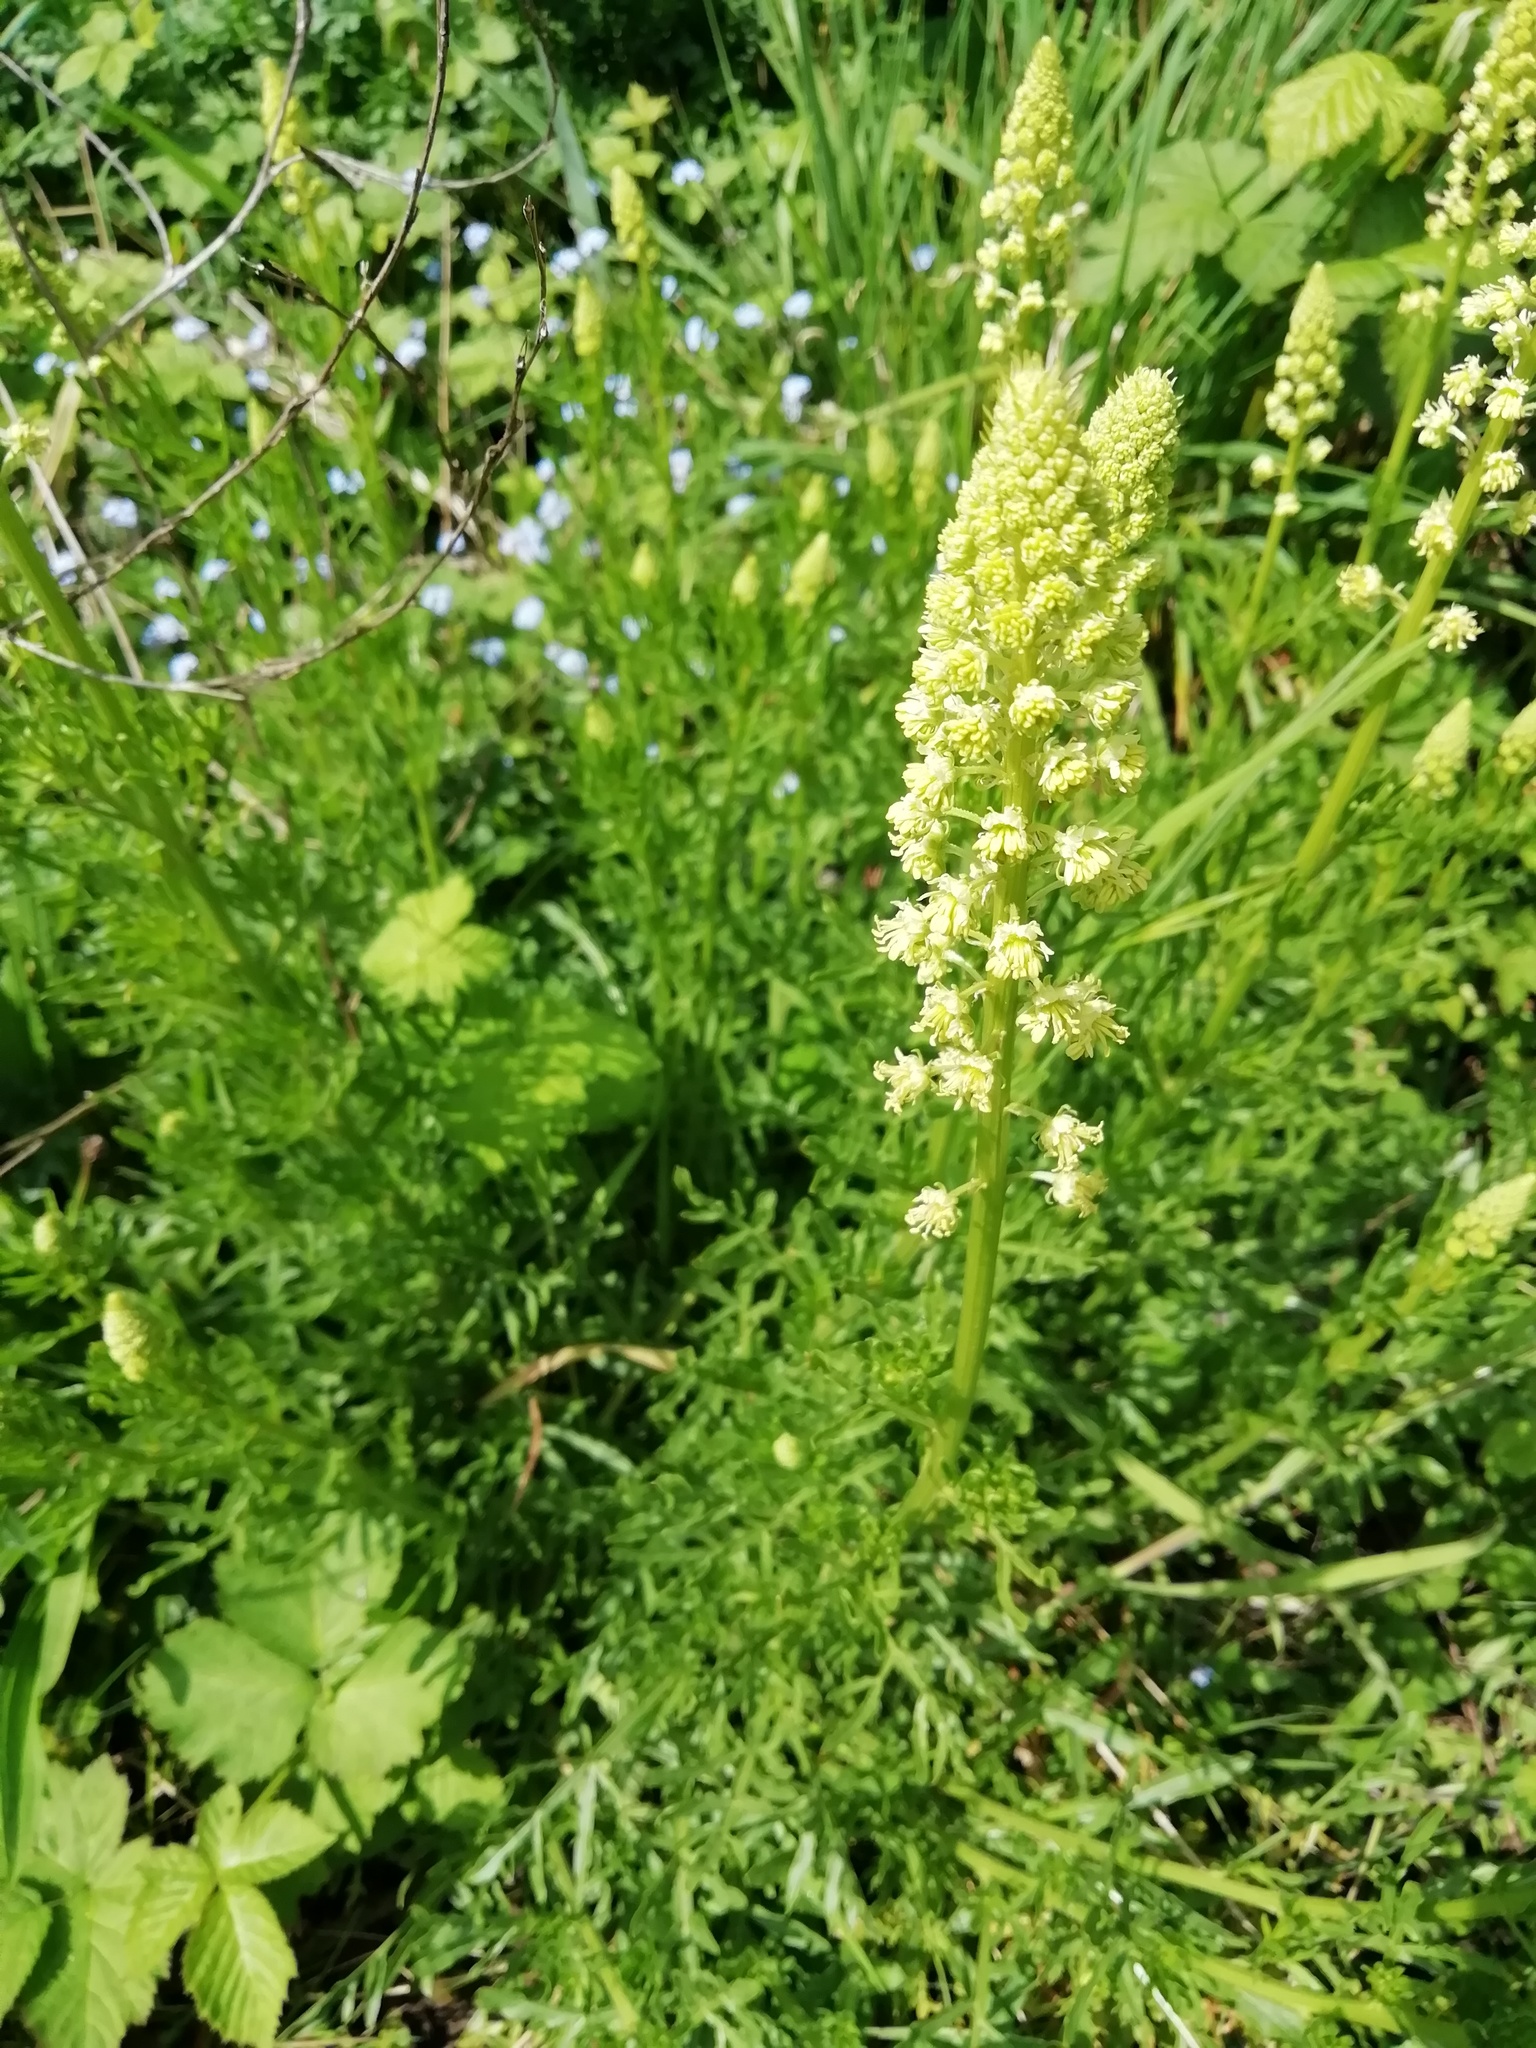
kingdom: Plantae
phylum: Tracheophyta
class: Magnoliopsida
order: Brassicales
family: Resedaceae
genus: Reseda
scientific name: Reseda lutea
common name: Wild mignonette
